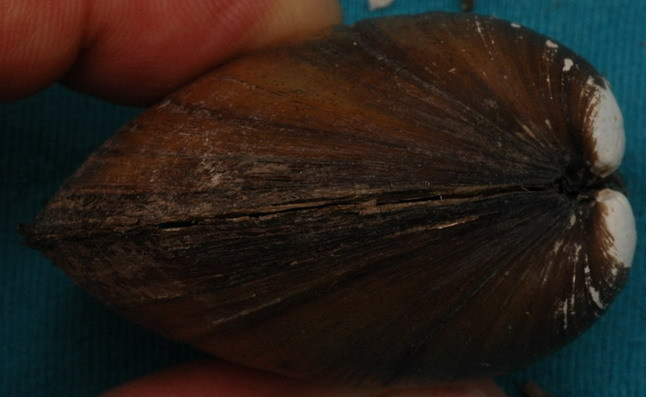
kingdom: Animalia
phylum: Mollusca
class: Bivalvia
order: Unionida
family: Unionidae
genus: Cyclonaias
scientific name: Cyclonaias pustulosa
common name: Pimpleback
